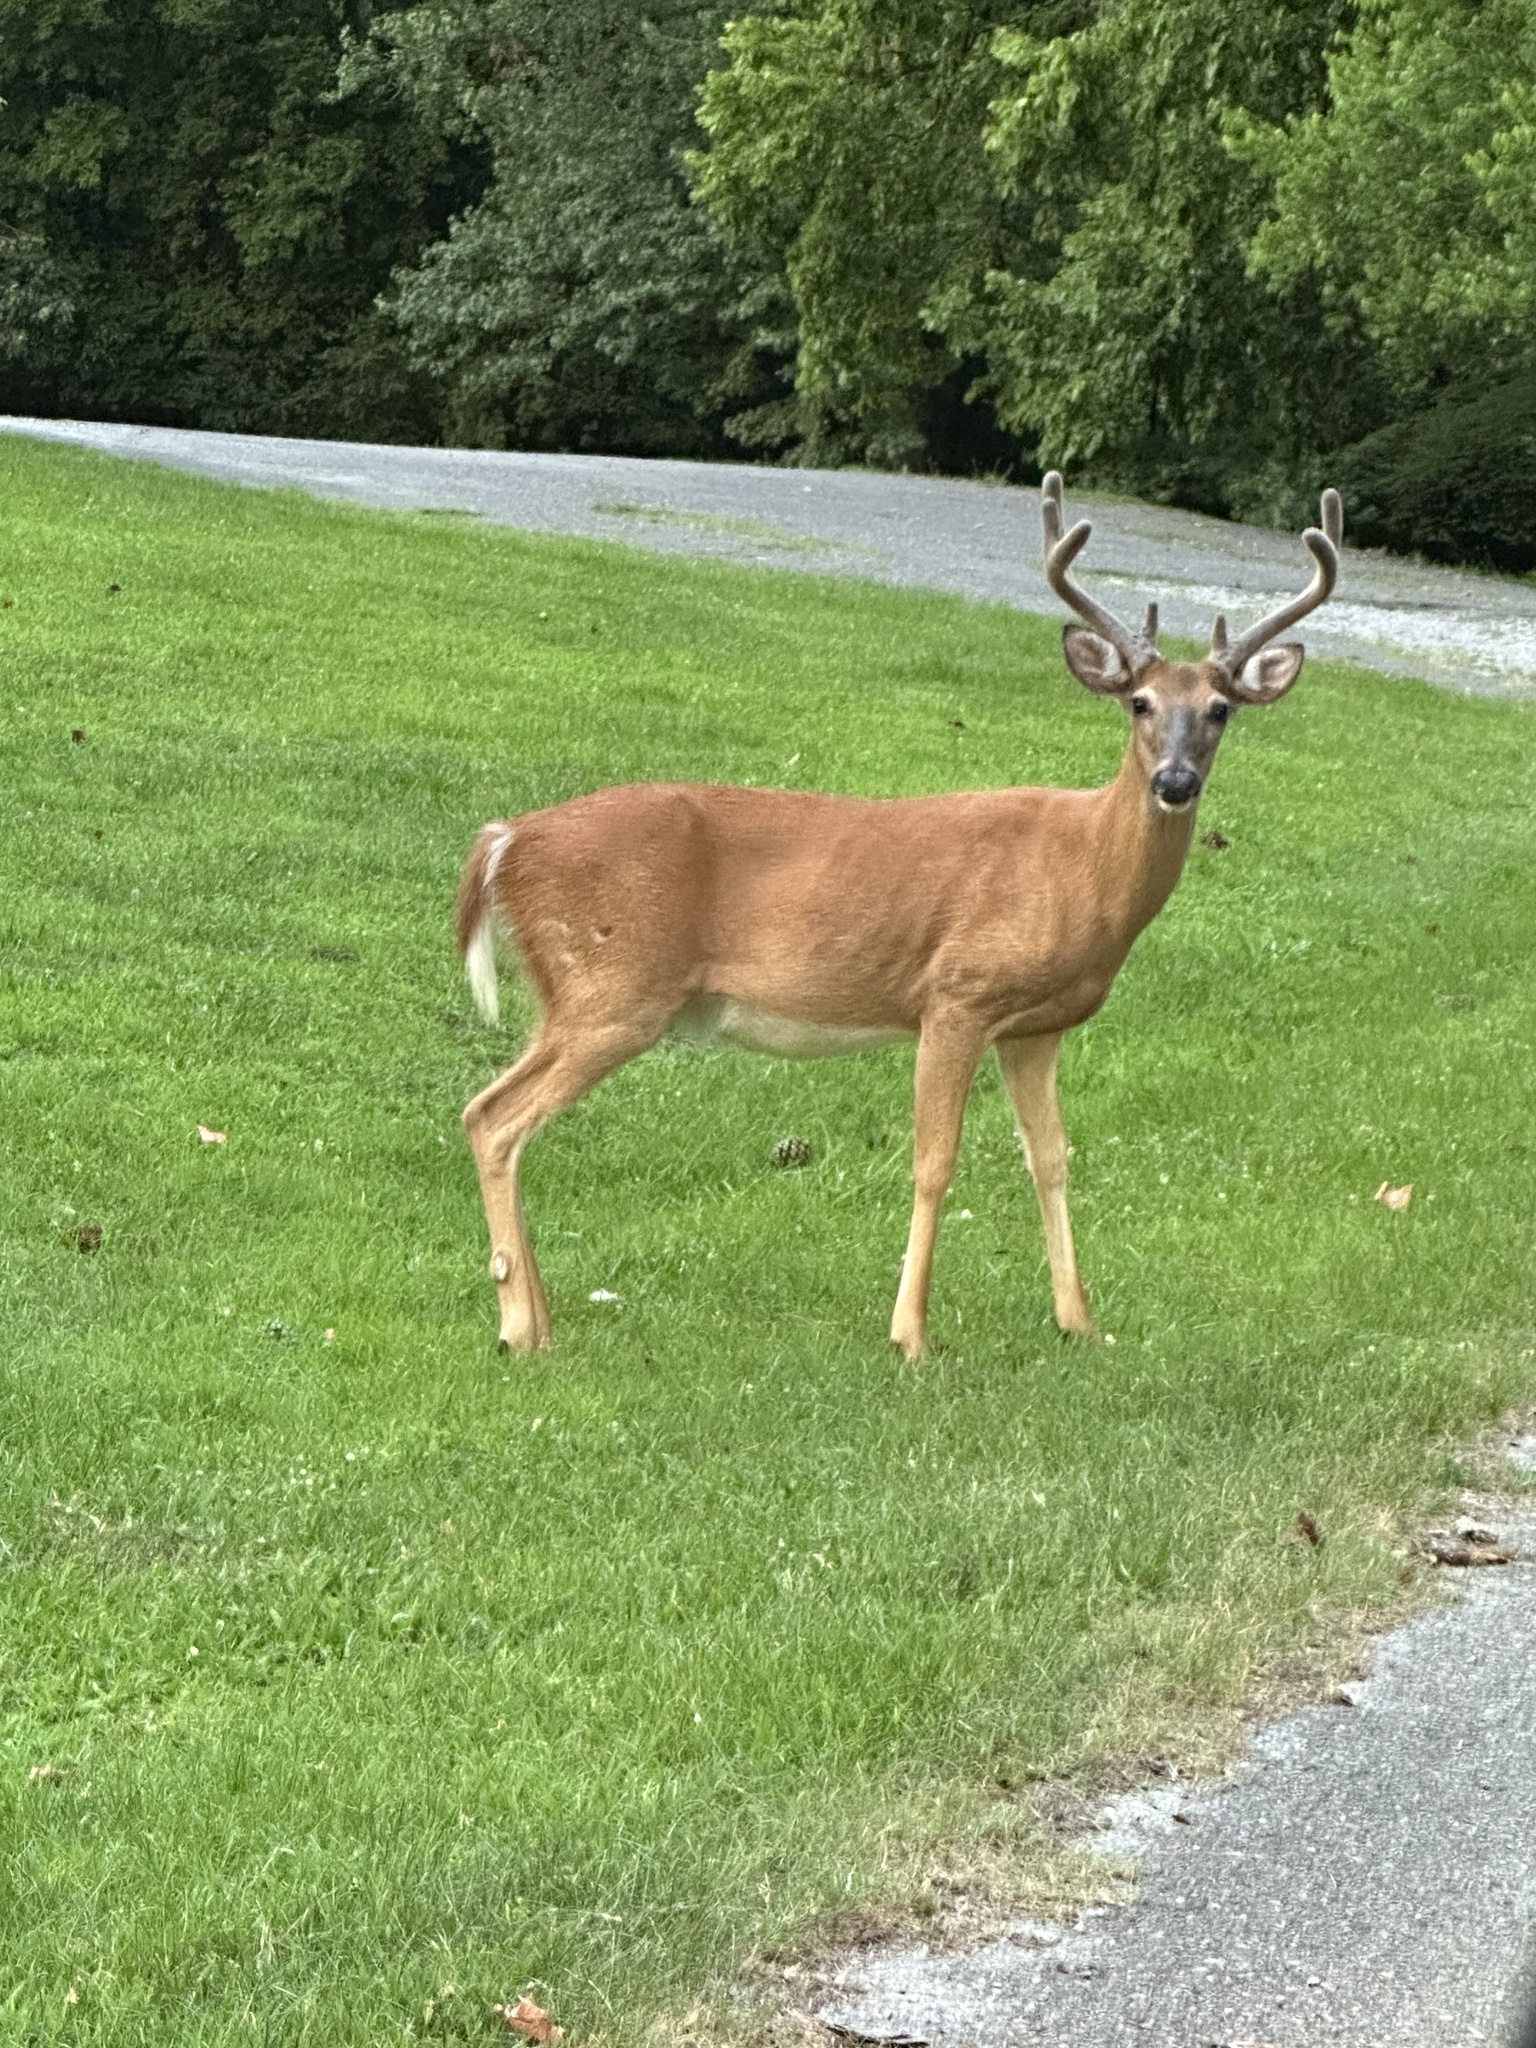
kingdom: Animalia
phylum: Chordata
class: Mammalia
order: Artiodactyla
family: Cervidae
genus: Odocoileus
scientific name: Odocoileus virginianus
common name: White-tailed deer
